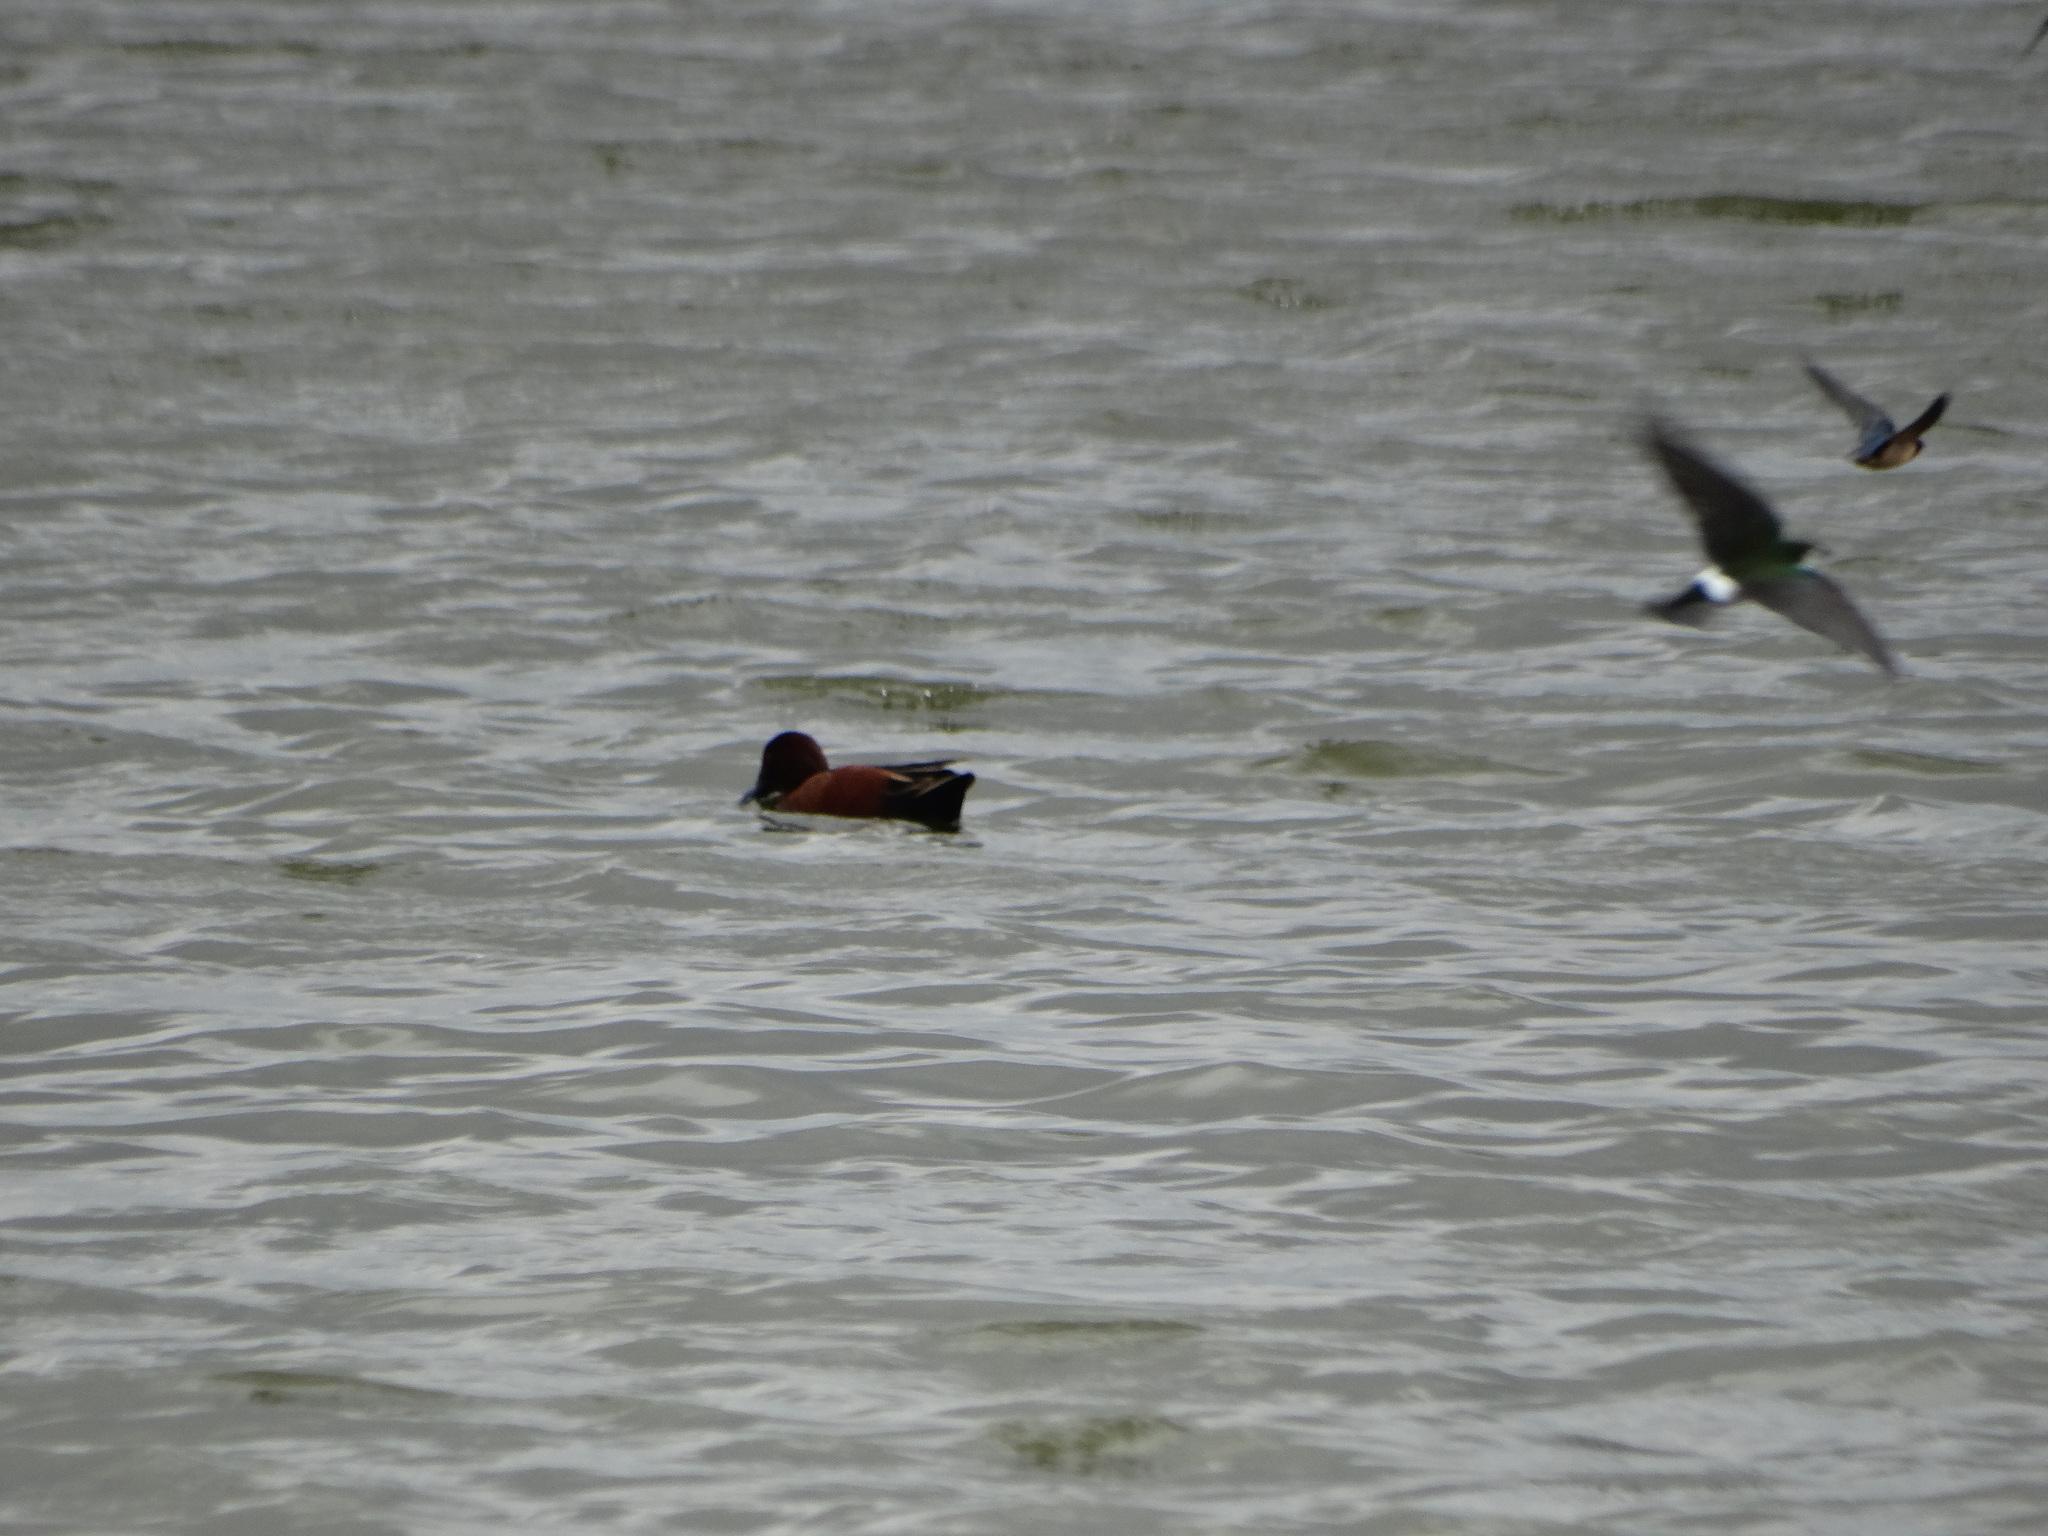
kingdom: Animalia
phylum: Chordata
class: Aves
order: Anseriformes
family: Anatidae
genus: Spatula
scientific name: Spatula cyanoptera
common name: Cinnamon teal
